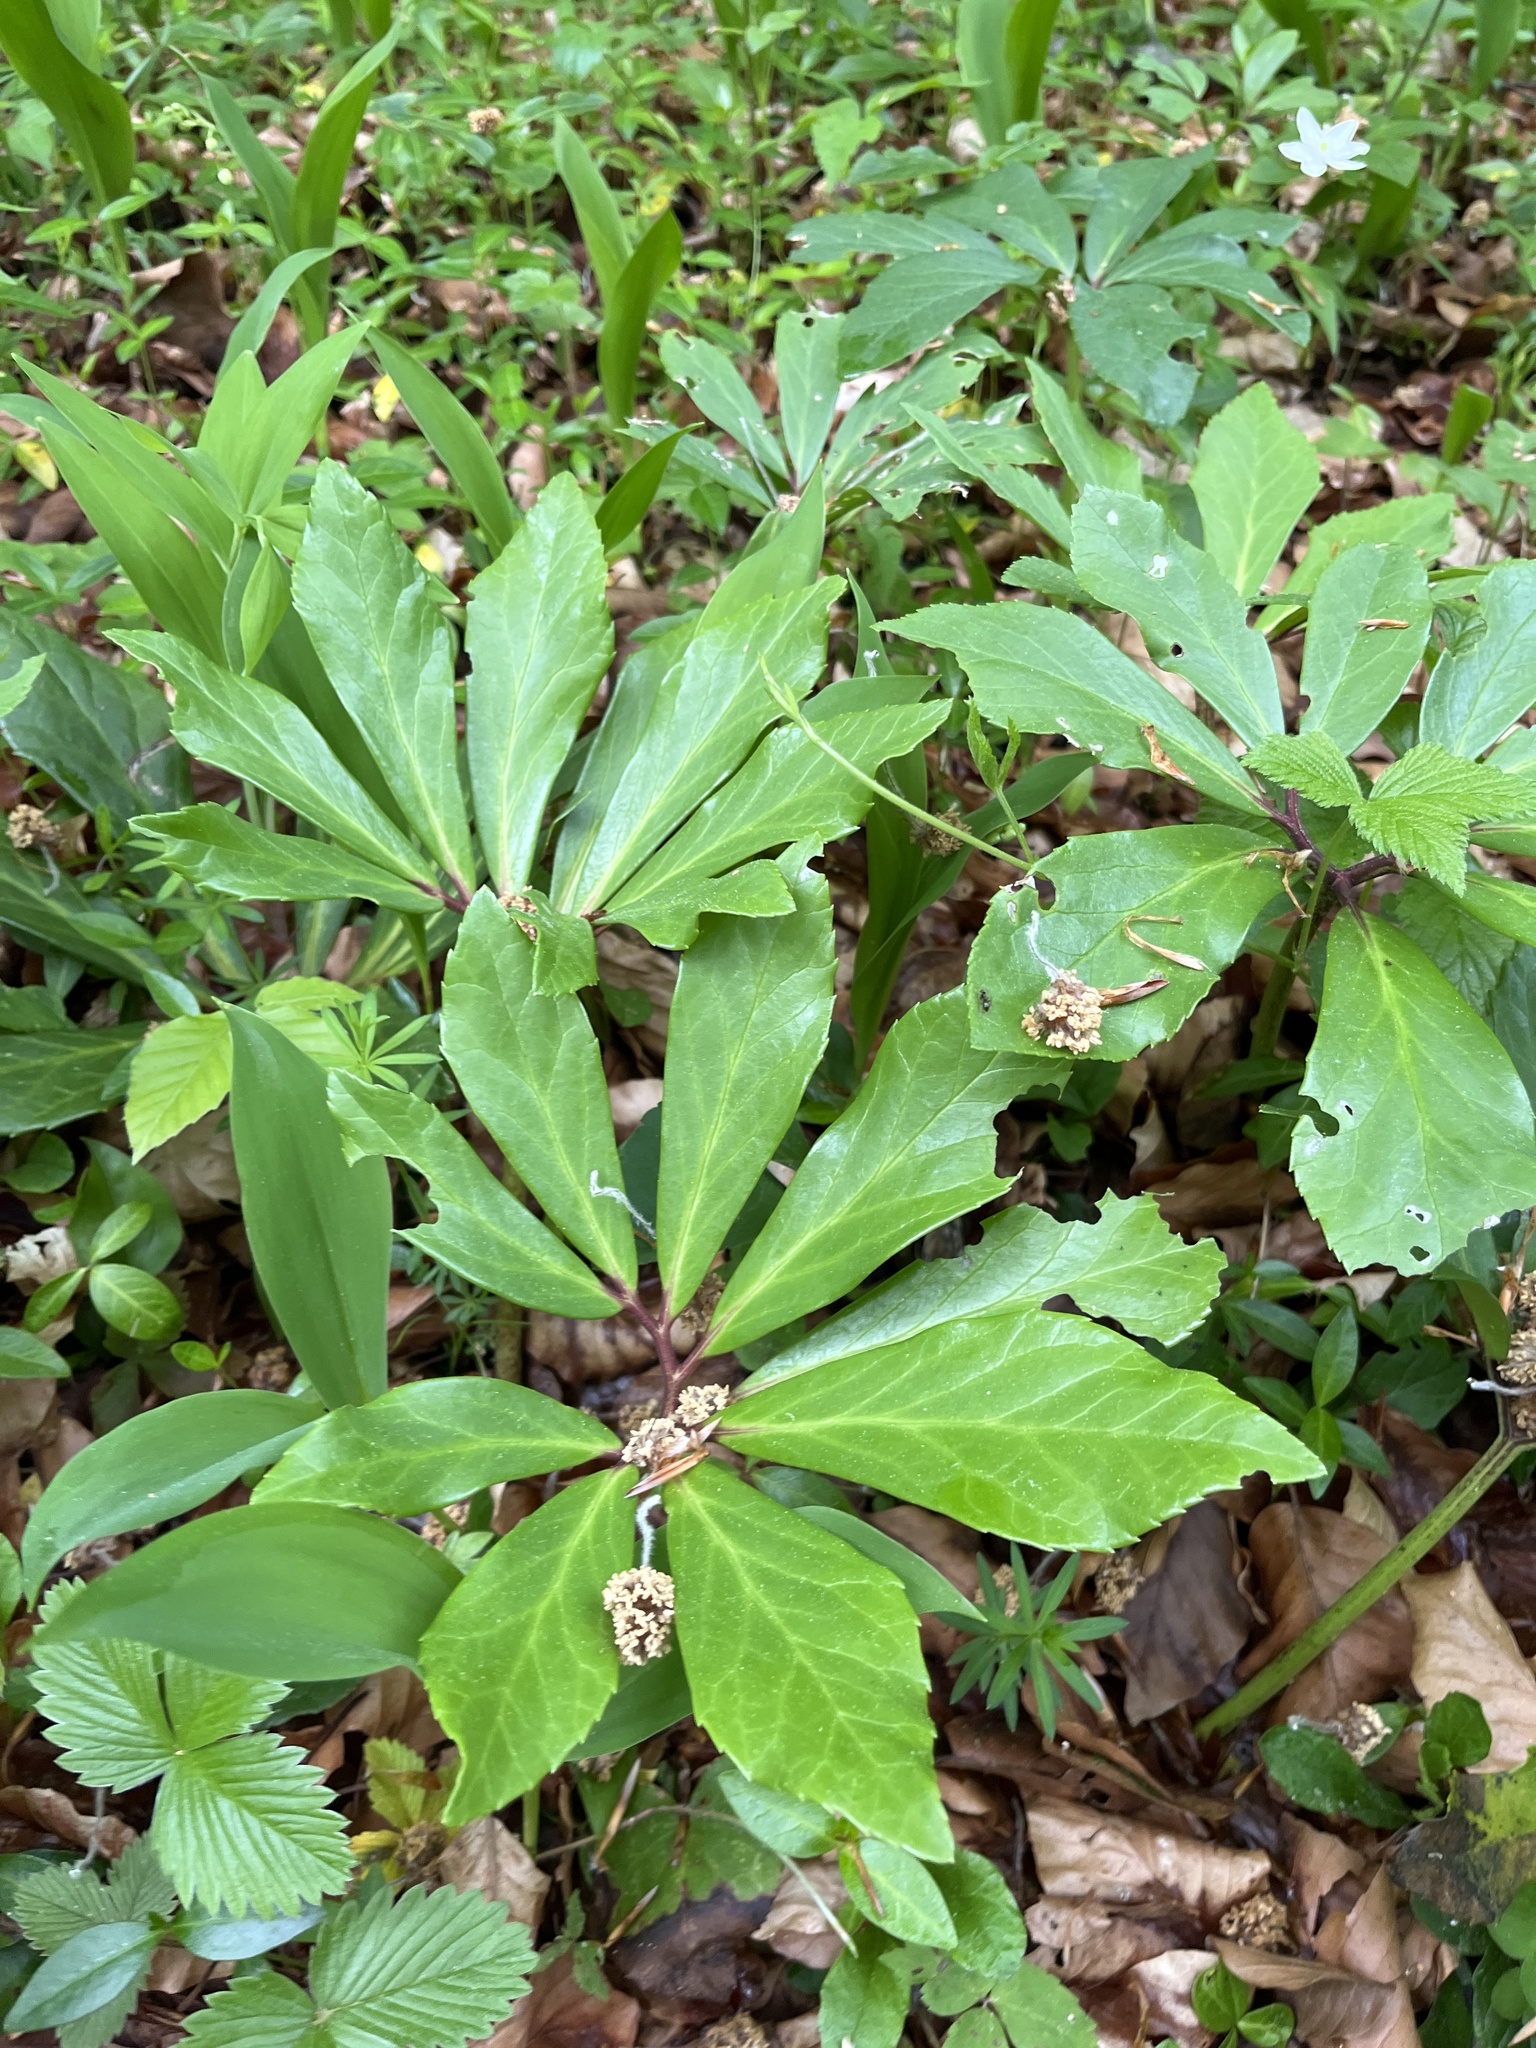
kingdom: Plantae
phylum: Tracheophyta
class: Magnoliopsida
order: Ranunculales
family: Ranunculaceae
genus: Helleborus
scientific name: Helleborus niger
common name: Black hellebore
